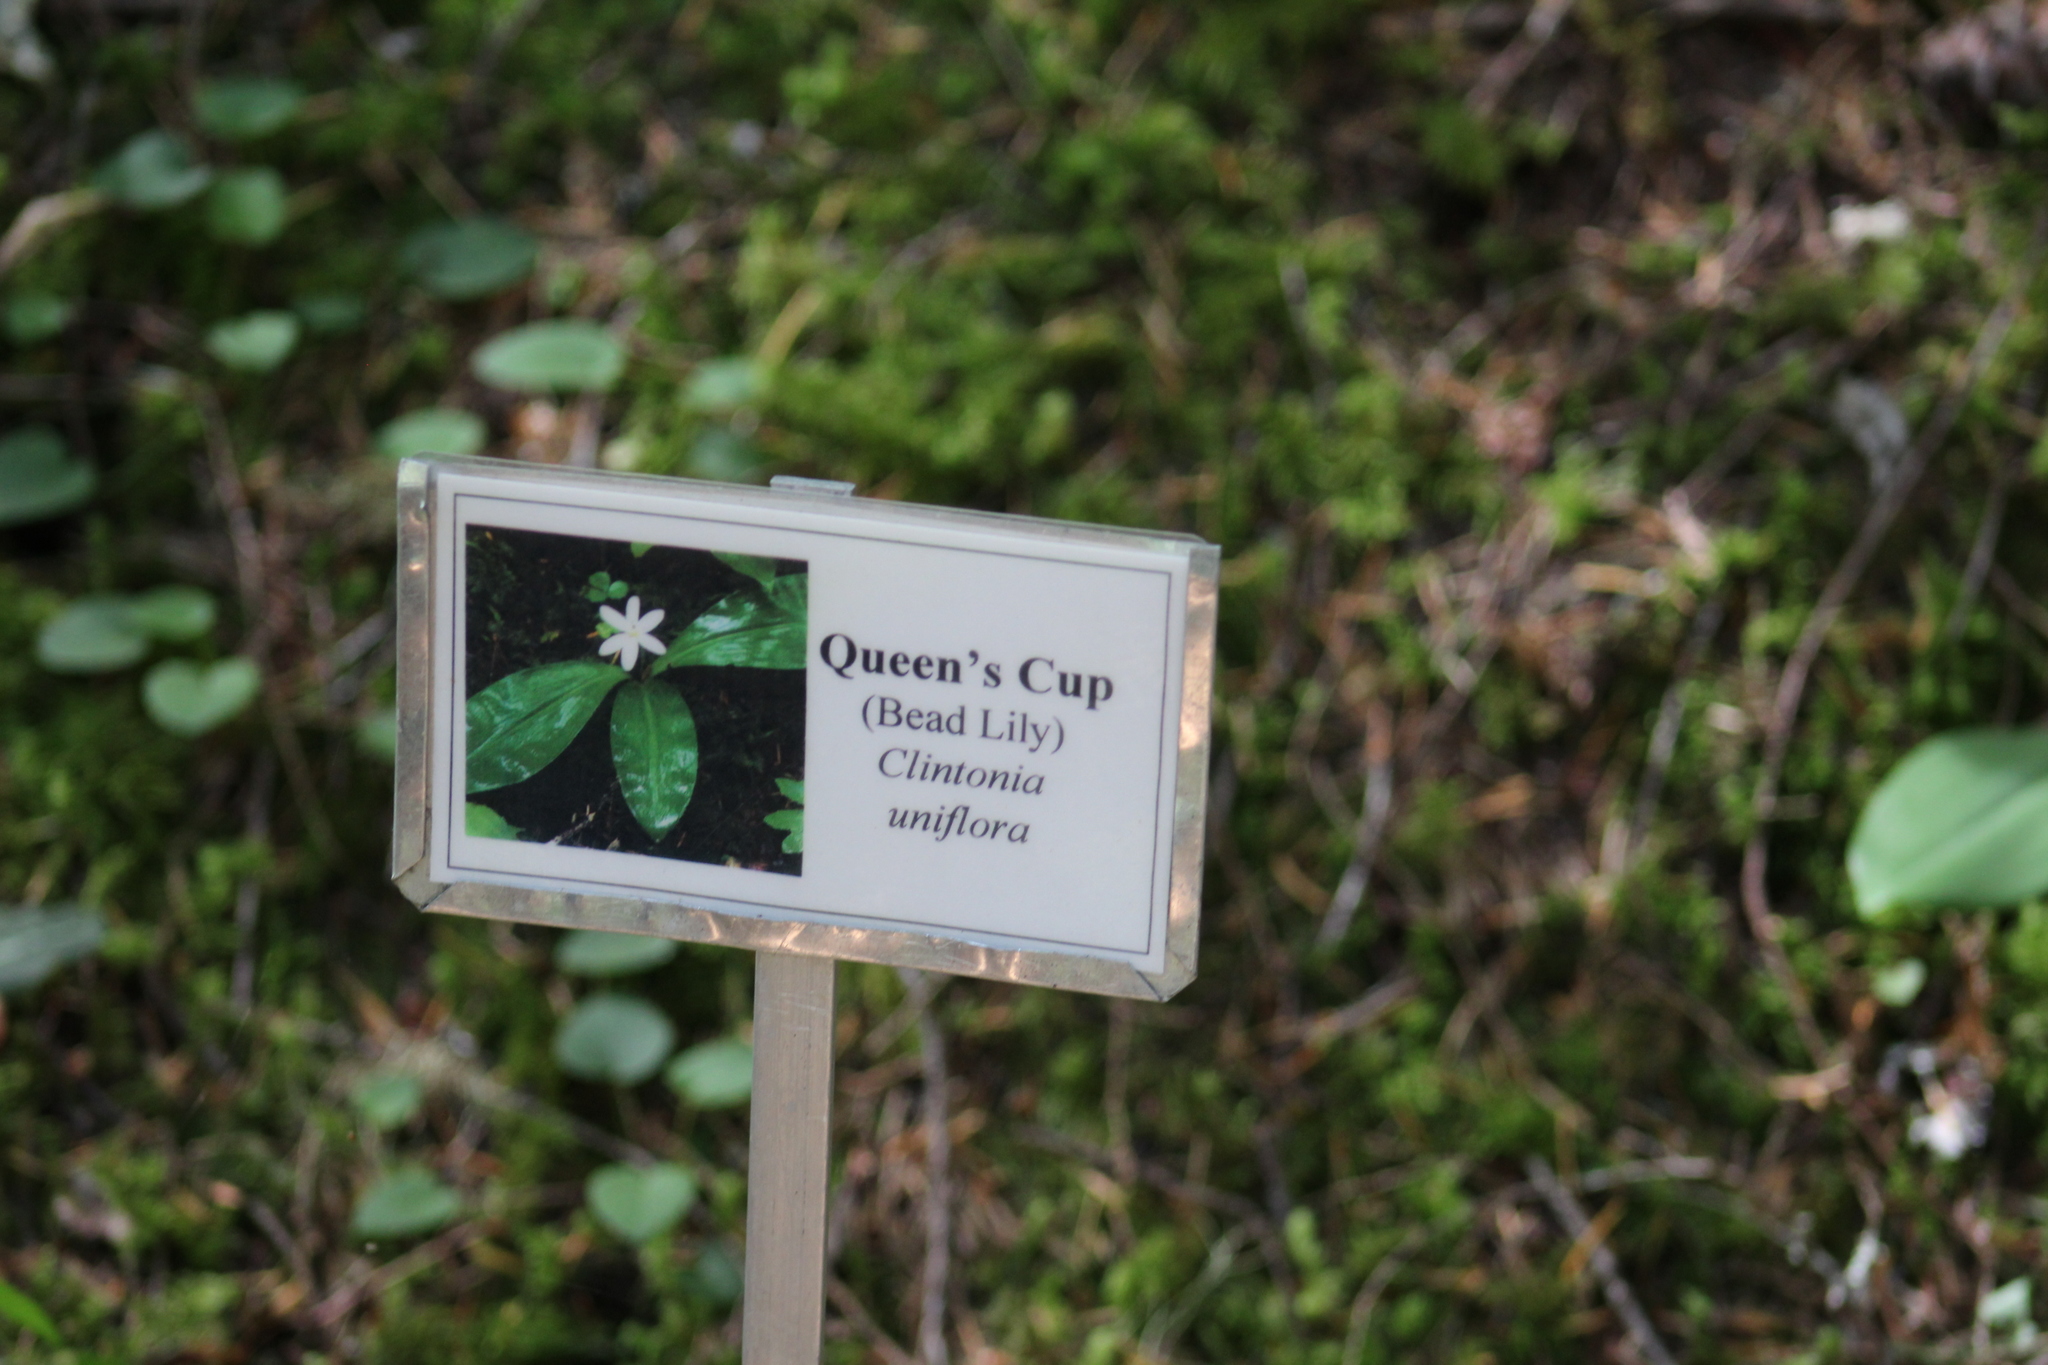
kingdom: Plantae
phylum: Tracheophyta
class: Liliopsida
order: Liliales
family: Liliaceae
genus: Clintonia
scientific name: Clintonia uniflora
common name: Queen's cup
